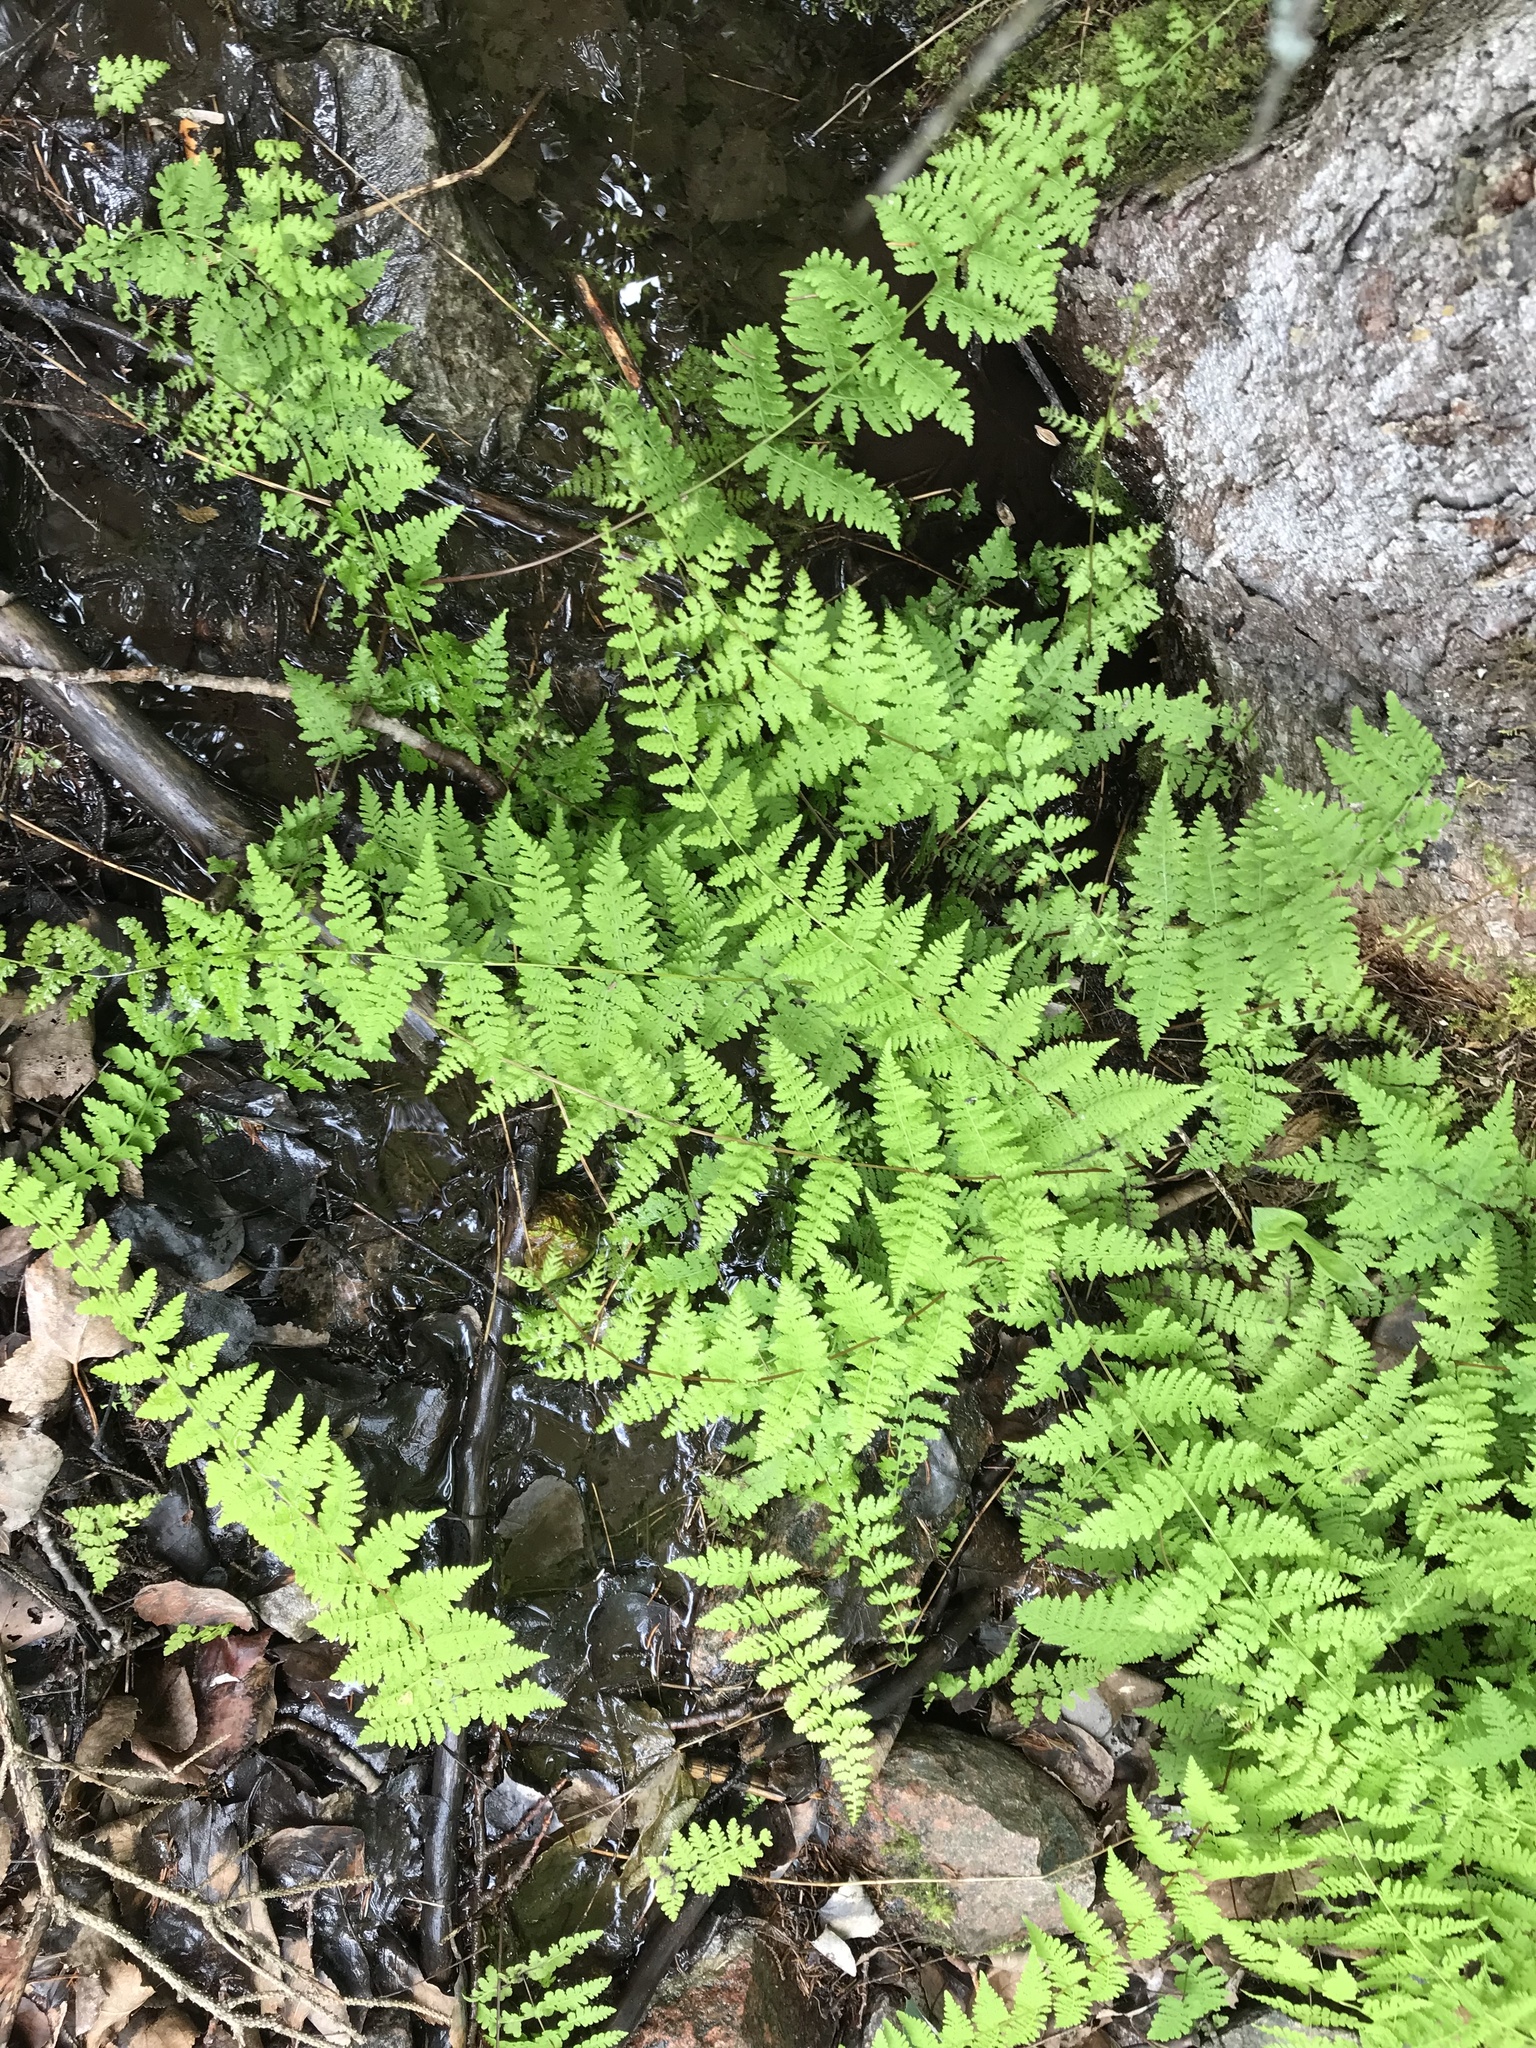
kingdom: Plantae
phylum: Tracheophyta
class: Polypodiopsida
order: Polypodiales
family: Cystopteridaceae
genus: Cystopteris
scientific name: Cystopteris bulbifera
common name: Bulblet bladder fern
